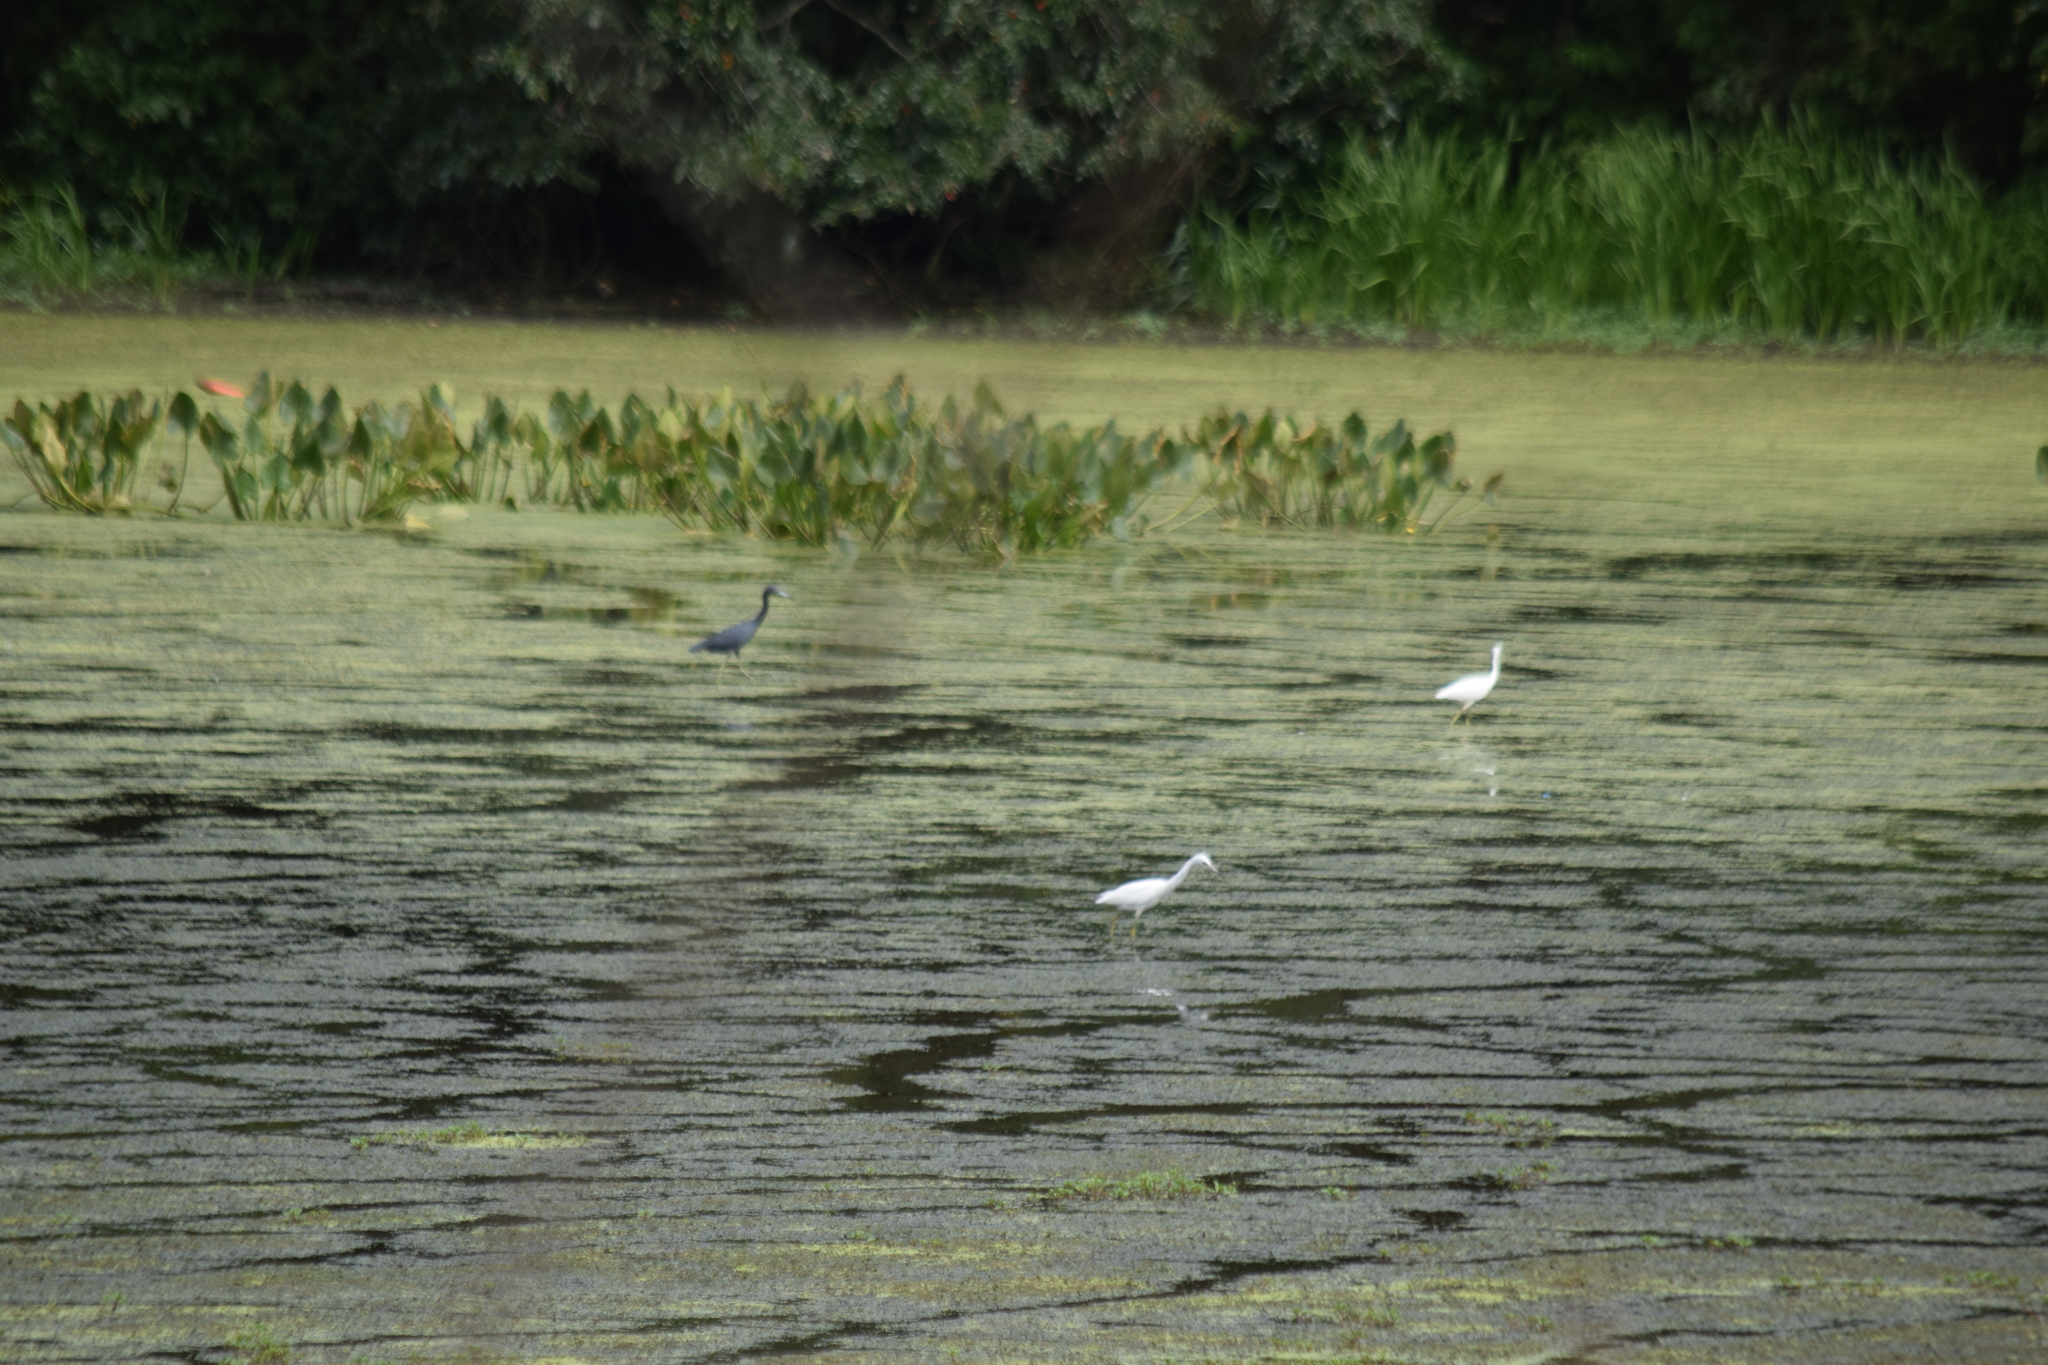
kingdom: Animalia
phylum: Chordata
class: Aves
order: Pelecaniformes
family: Ardeidae
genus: Egretta
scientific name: Egretta caerulea
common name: Little blue heron
